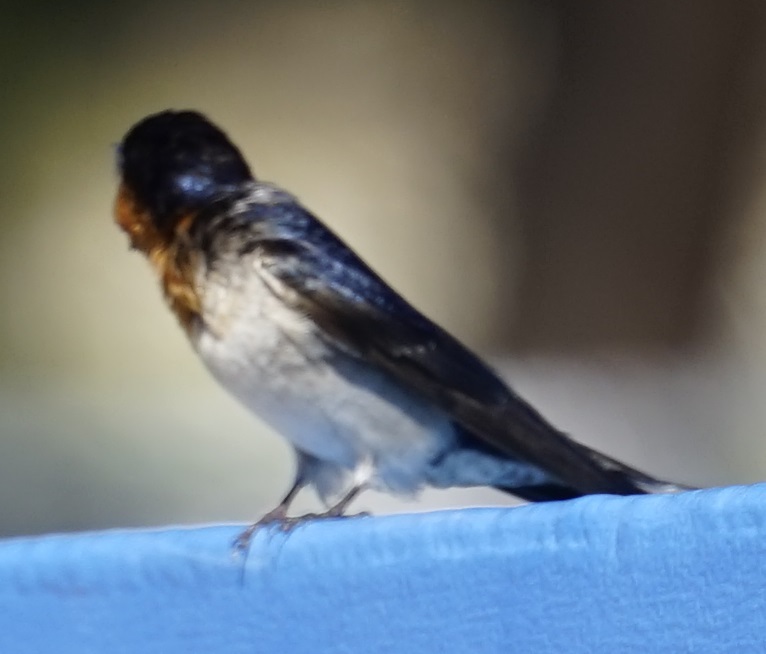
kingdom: Animalia
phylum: Chordata
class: Aves
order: Passeriformes
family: Hirundinidae
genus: Hirundo
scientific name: Hirundo neoxena
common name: Welcome swallow
